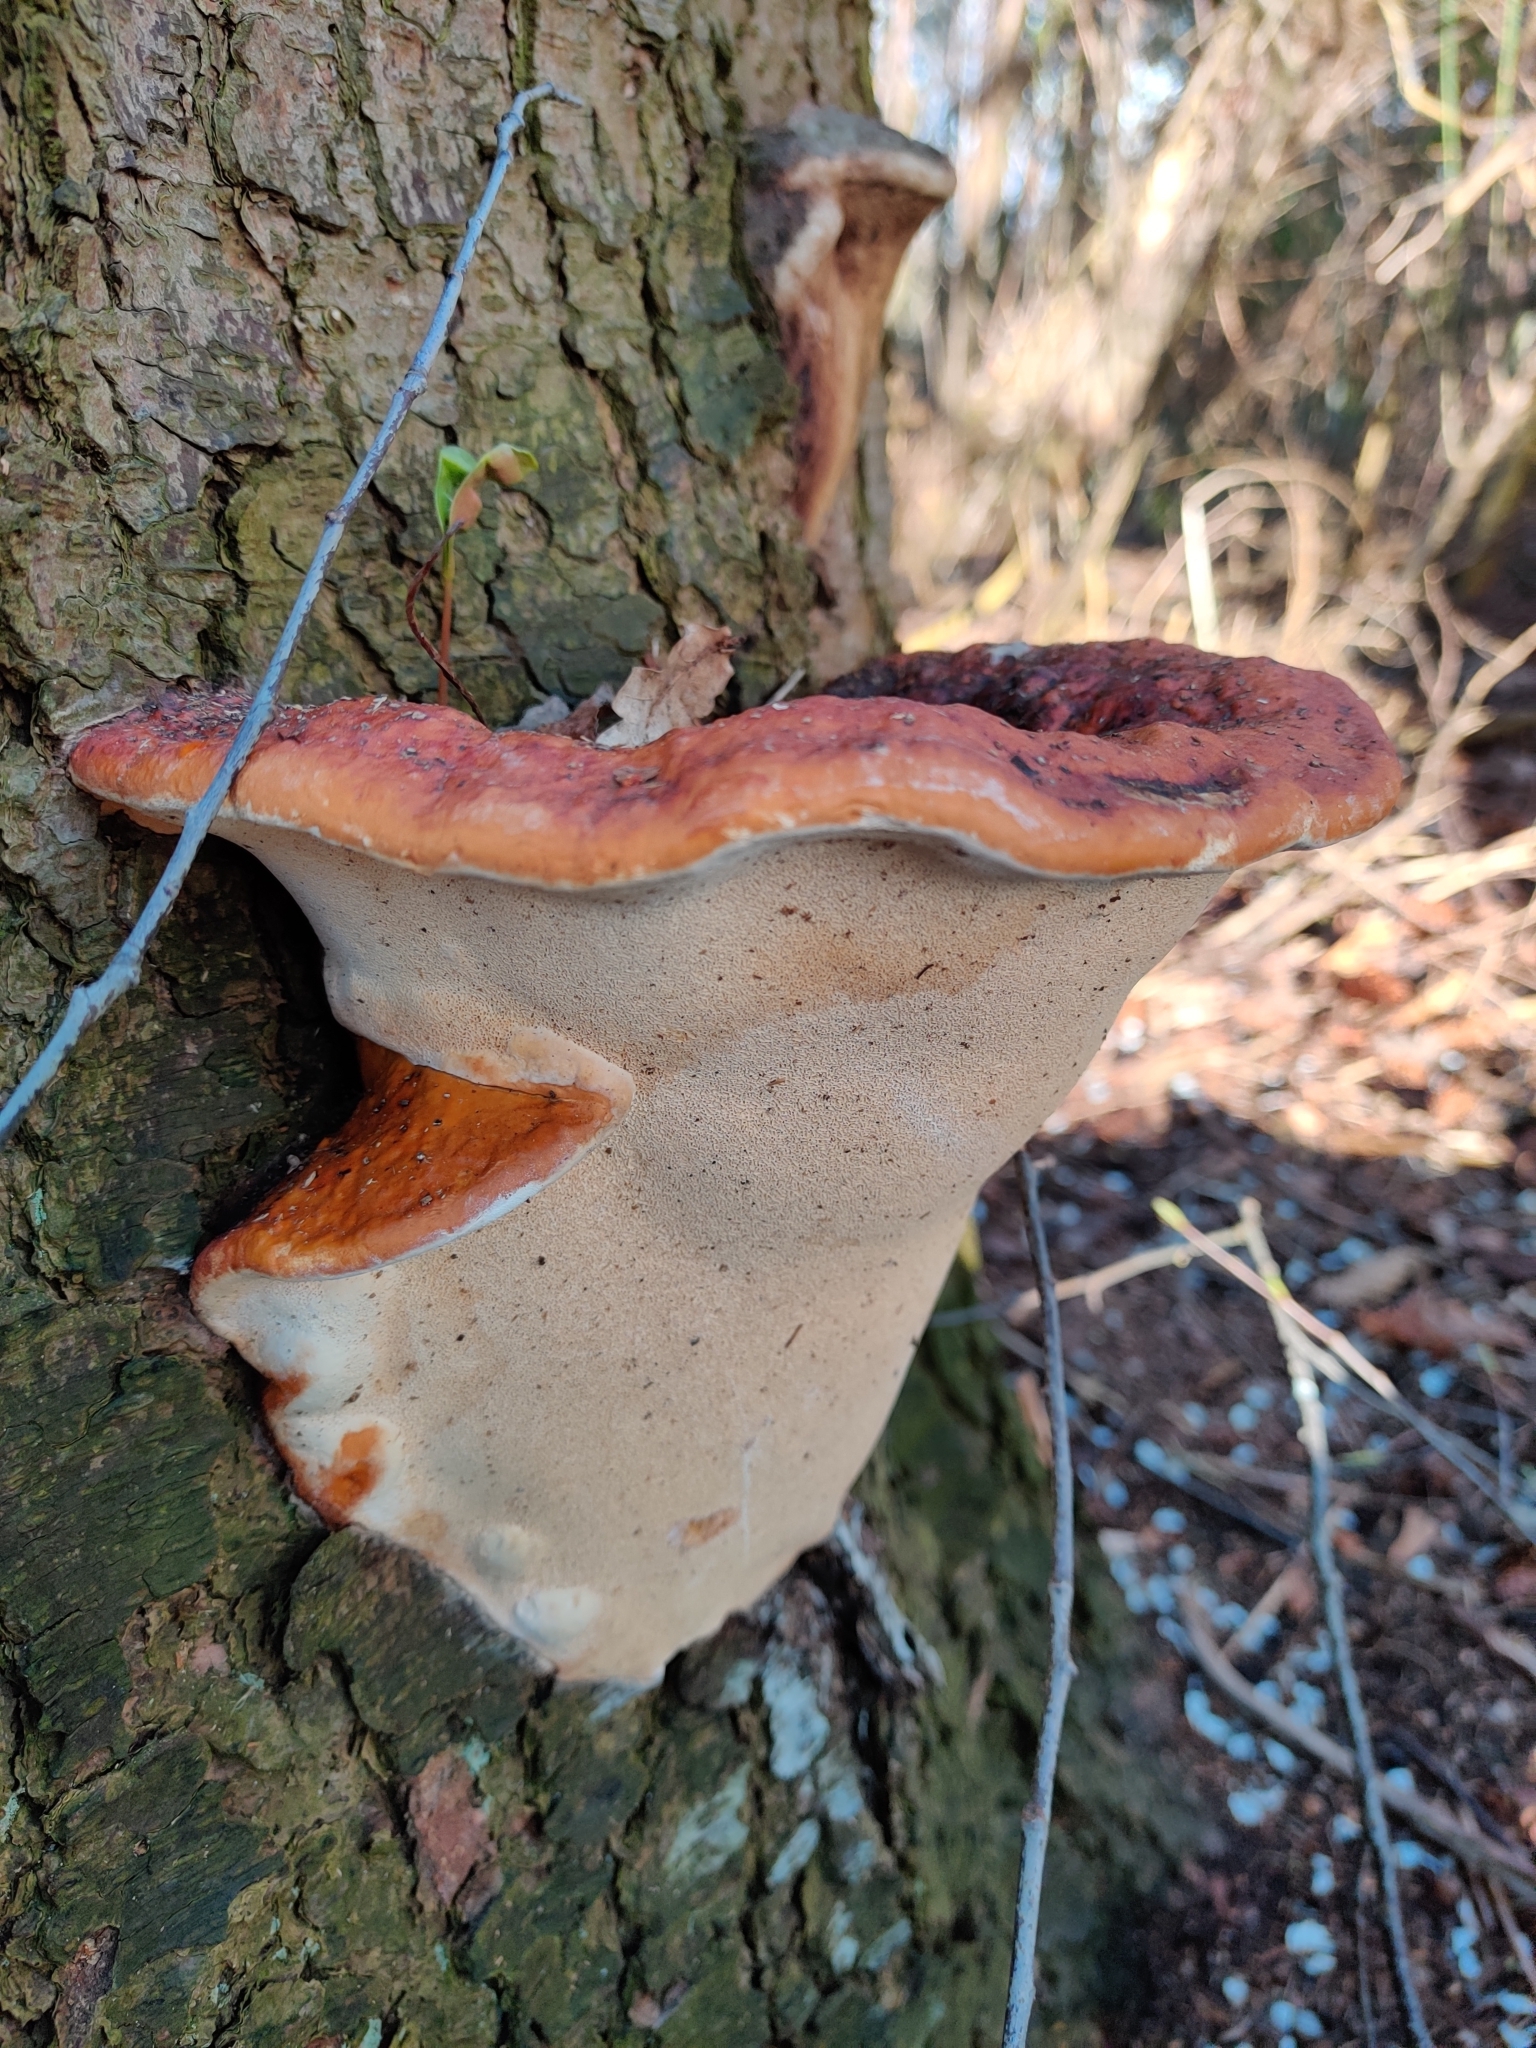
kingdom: Fungi
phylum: Basidiomycota
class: Agaricomycetes
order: Polyporales
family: Fomitopsidaceae
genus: Fomitopsis
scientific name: Fomitopsis pinicola
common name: Red-belted bracket
